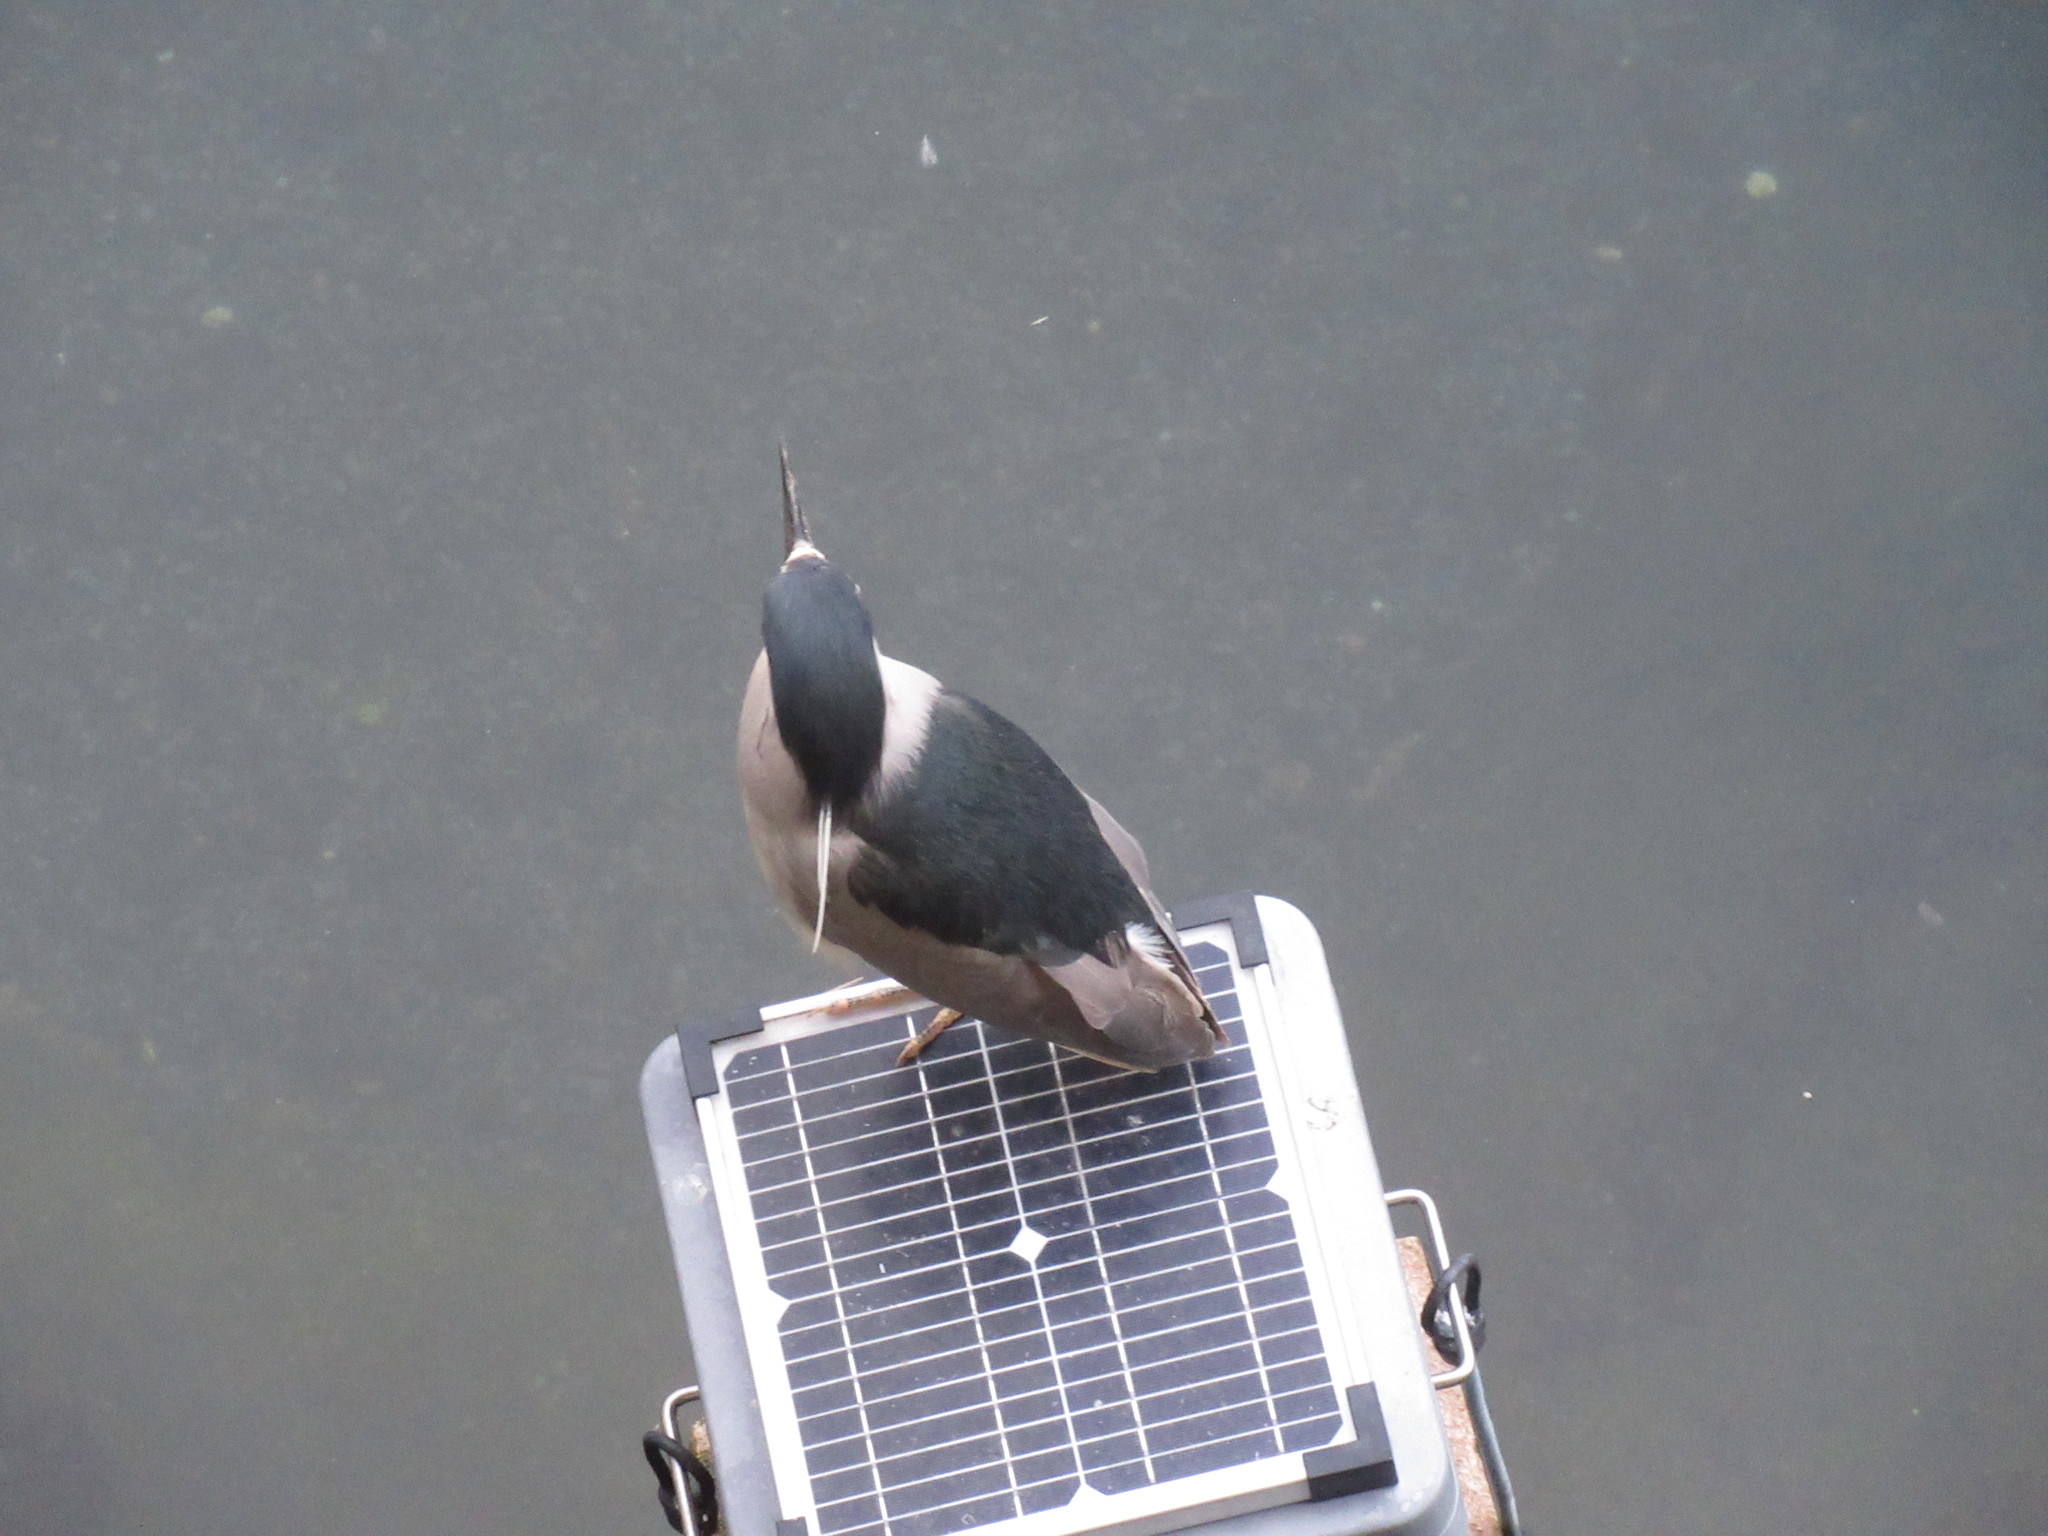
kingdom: Animalia
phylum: Chordata
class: Aves
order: Pelecaniformes
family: Ardeidae
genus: Nycticorax
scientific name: Nycticorax nycticorax
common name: Black-crowned night heron
